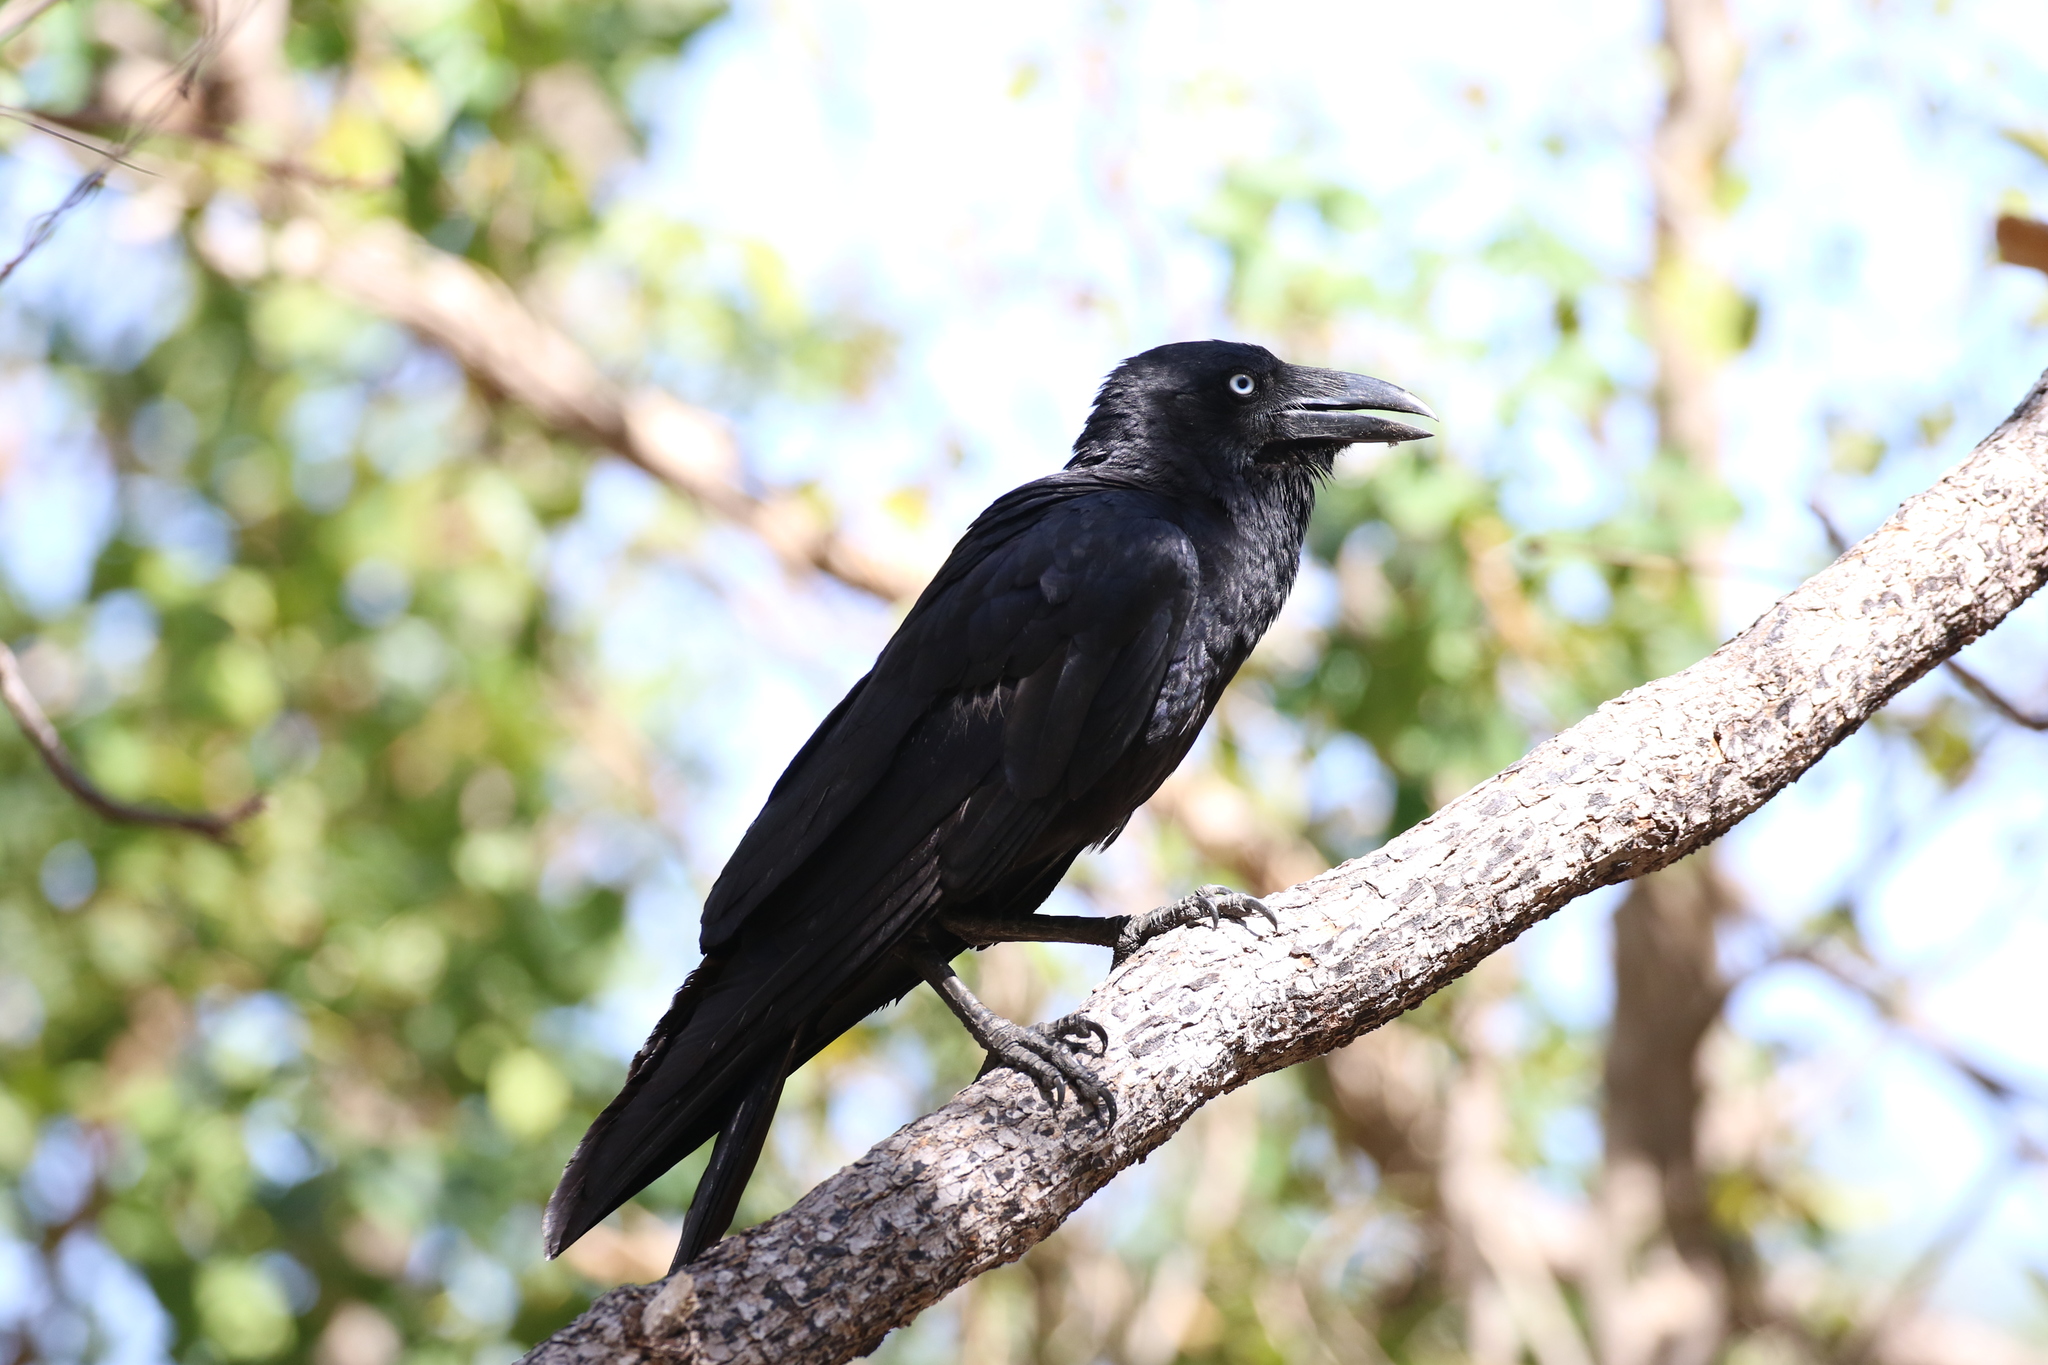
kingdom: Animalia
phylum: Chordata
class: Aves
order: Passeriformes
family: Corvidae
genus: Corvus
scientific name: Corvus orru
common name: Torresian crow
